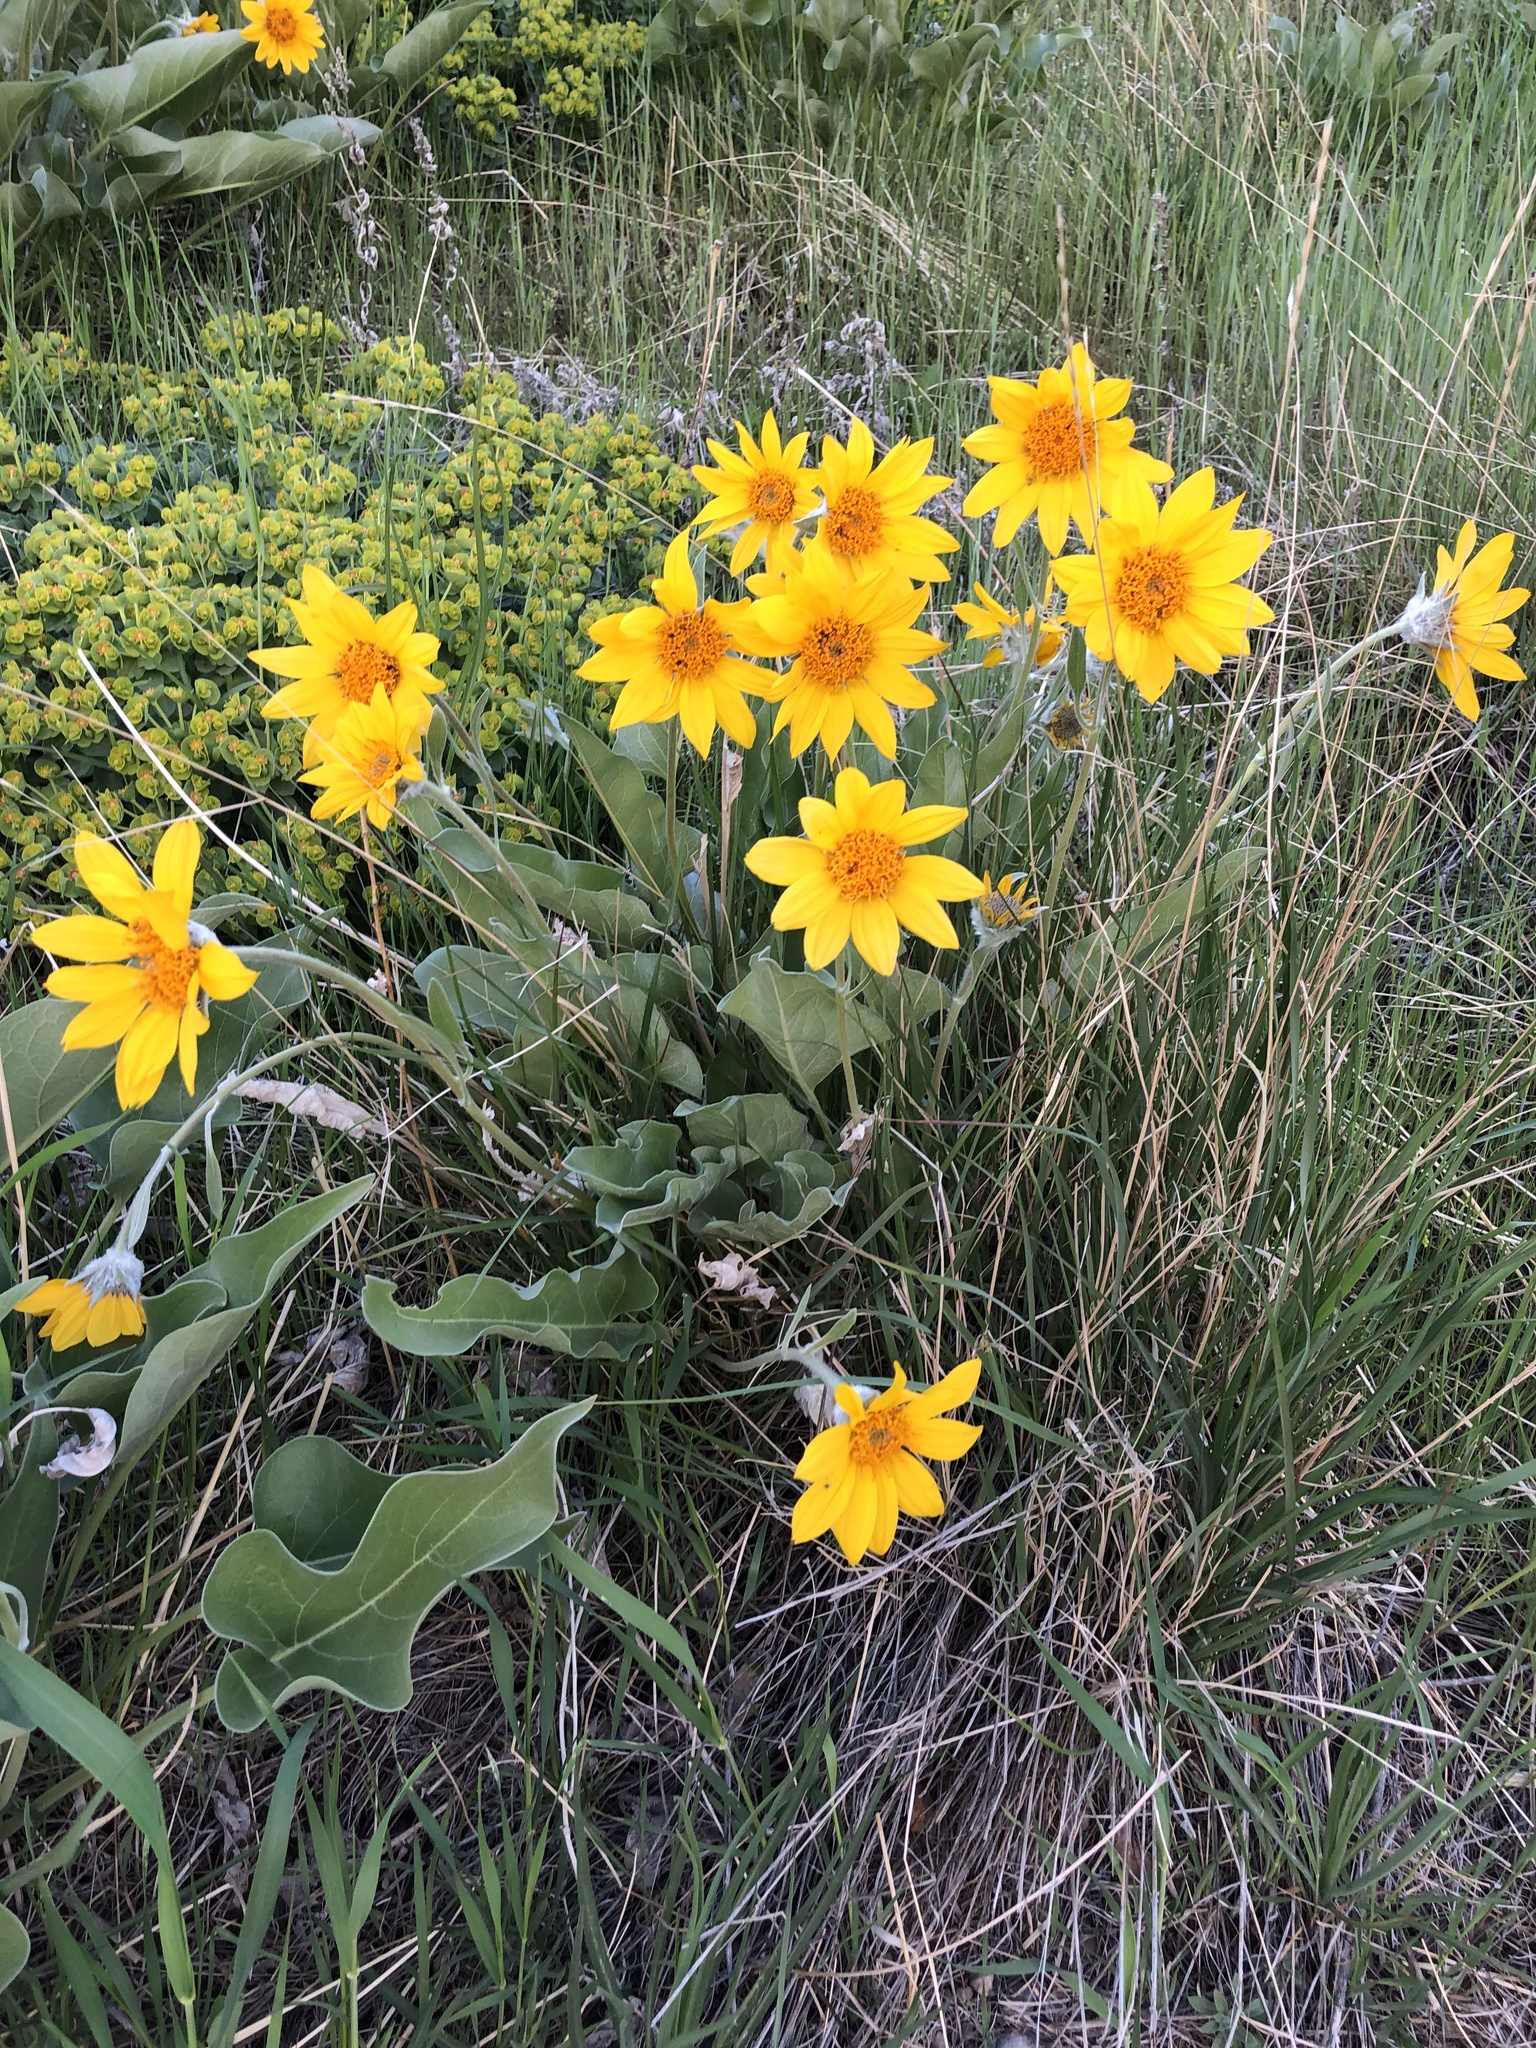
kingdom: Plantae
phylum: Tracheophyta
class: Magnoliopsida
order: Asterales
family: Asteraceae
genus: Wyethia
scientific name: Wyethia sagittata
